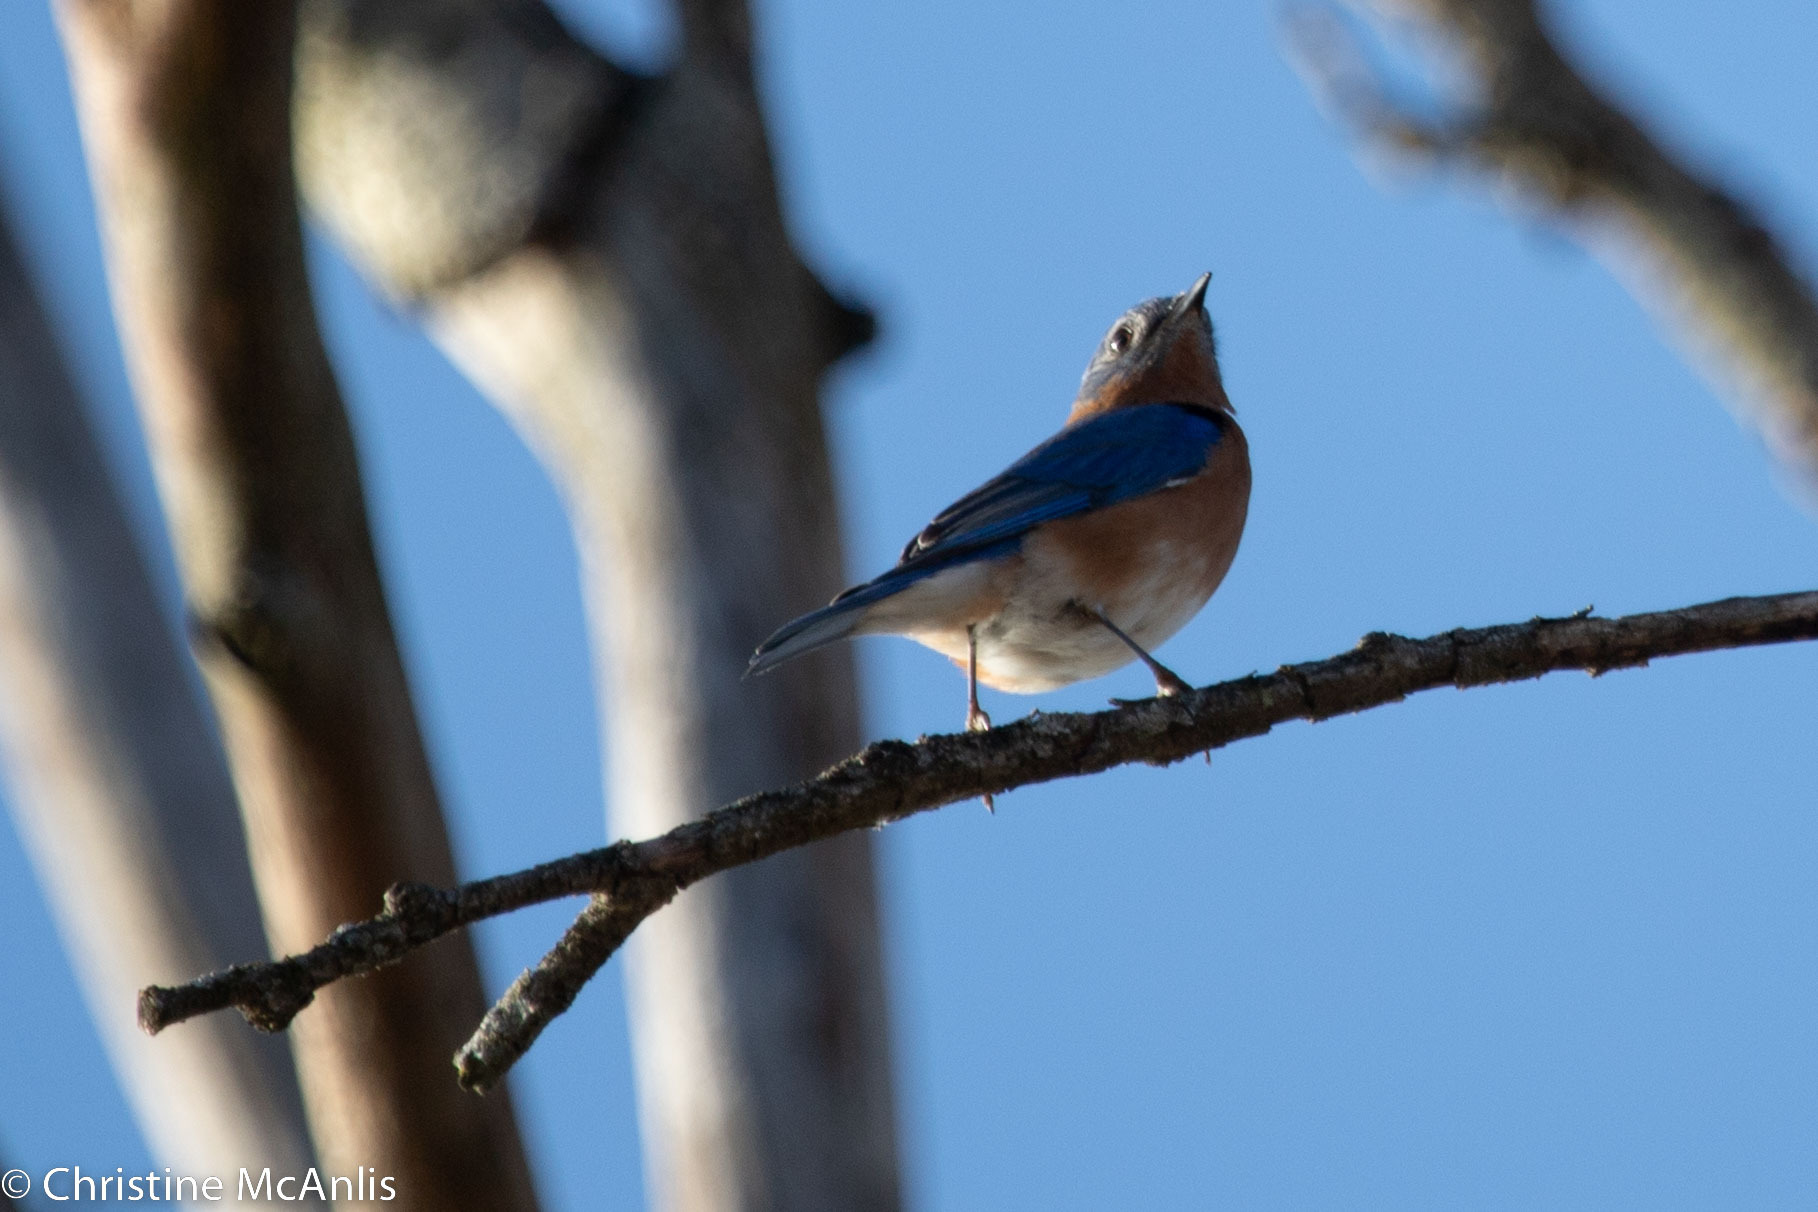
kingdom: Animalia
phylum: Chordata
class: Aves
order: Passeriformes
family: Turdidae
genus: Sialia
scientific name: Sialia sialis
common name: Eastern bluebird
